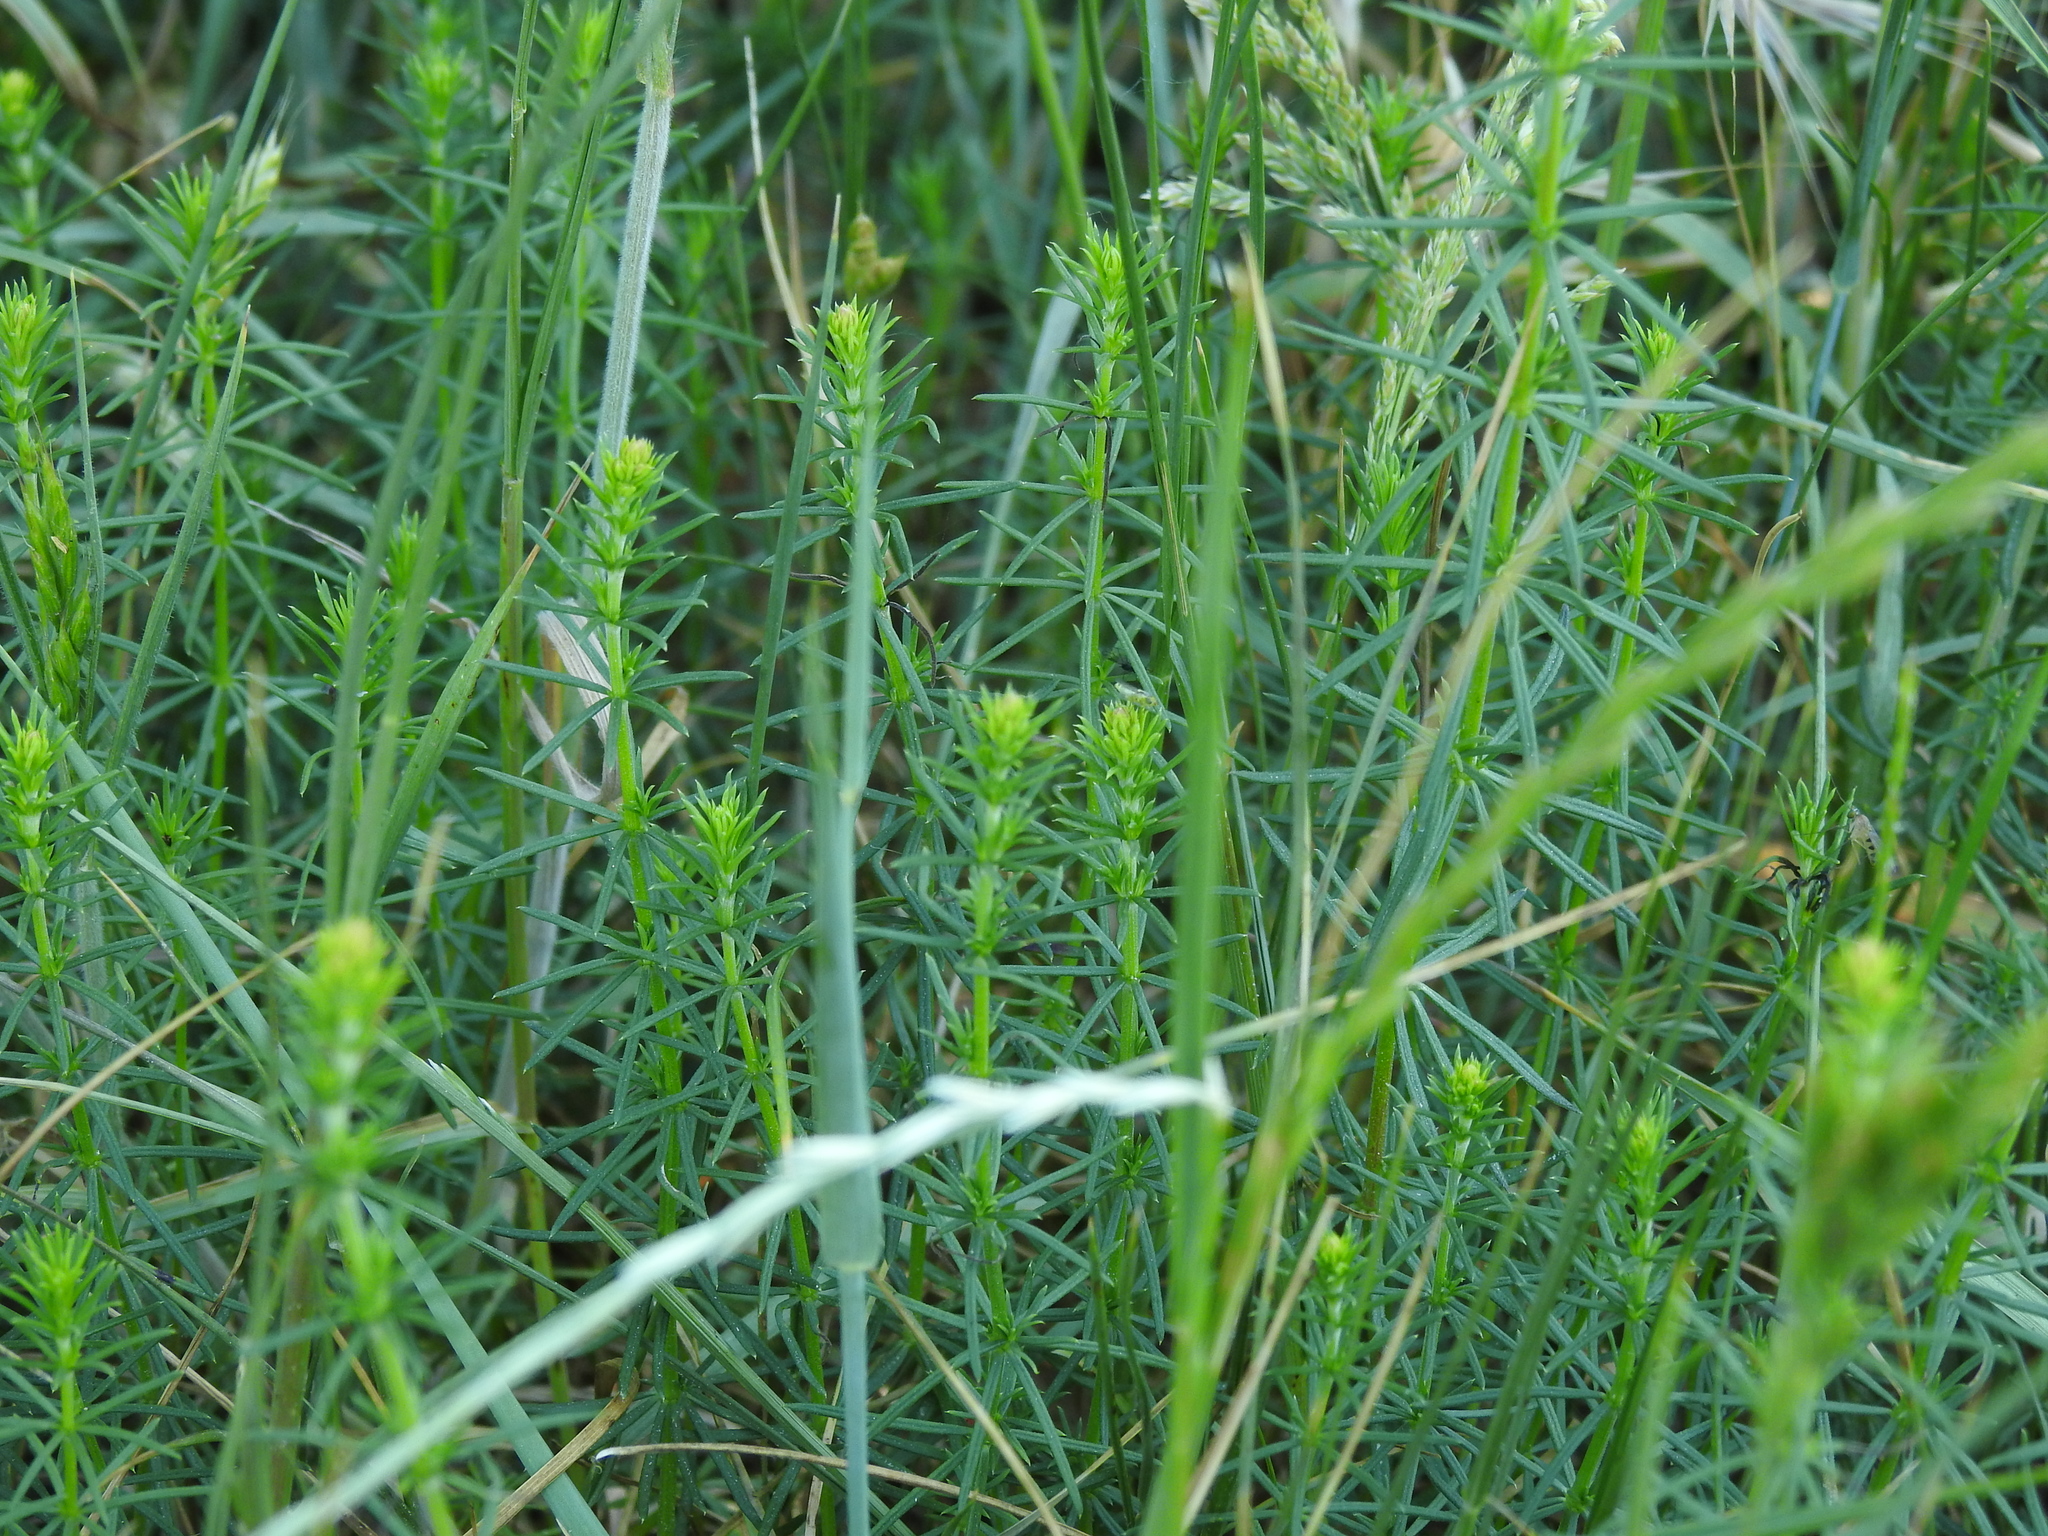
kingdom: Plantae
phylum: Tracheophyta
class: Magnoliopsida
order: Gentianales
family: Rubiaceae
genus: Galium
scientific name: Galium verum
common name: Lady's bedstraw
